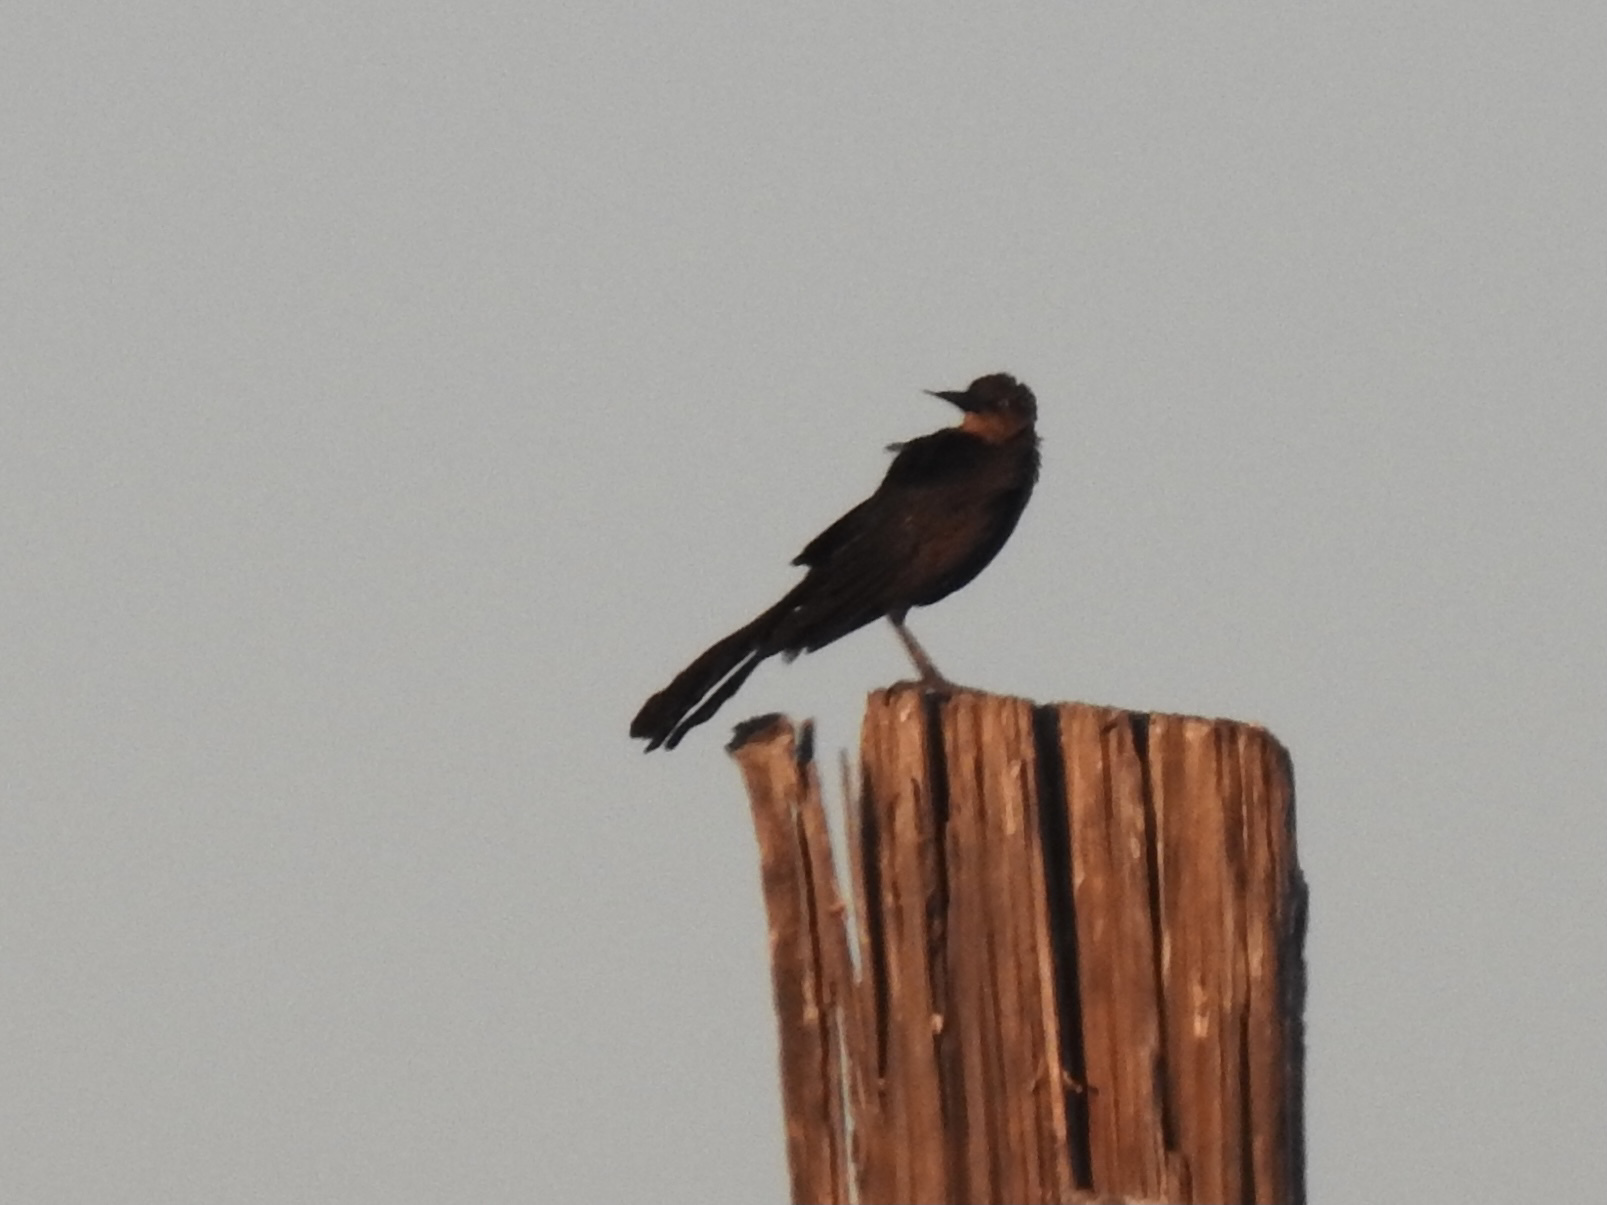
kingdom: Animalia
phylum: Chordata
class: Aves
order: Passeriformes
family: Icteridae
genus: Quiscalus
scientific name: Quiscalus mexicanus
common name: Great-tailed grackle
